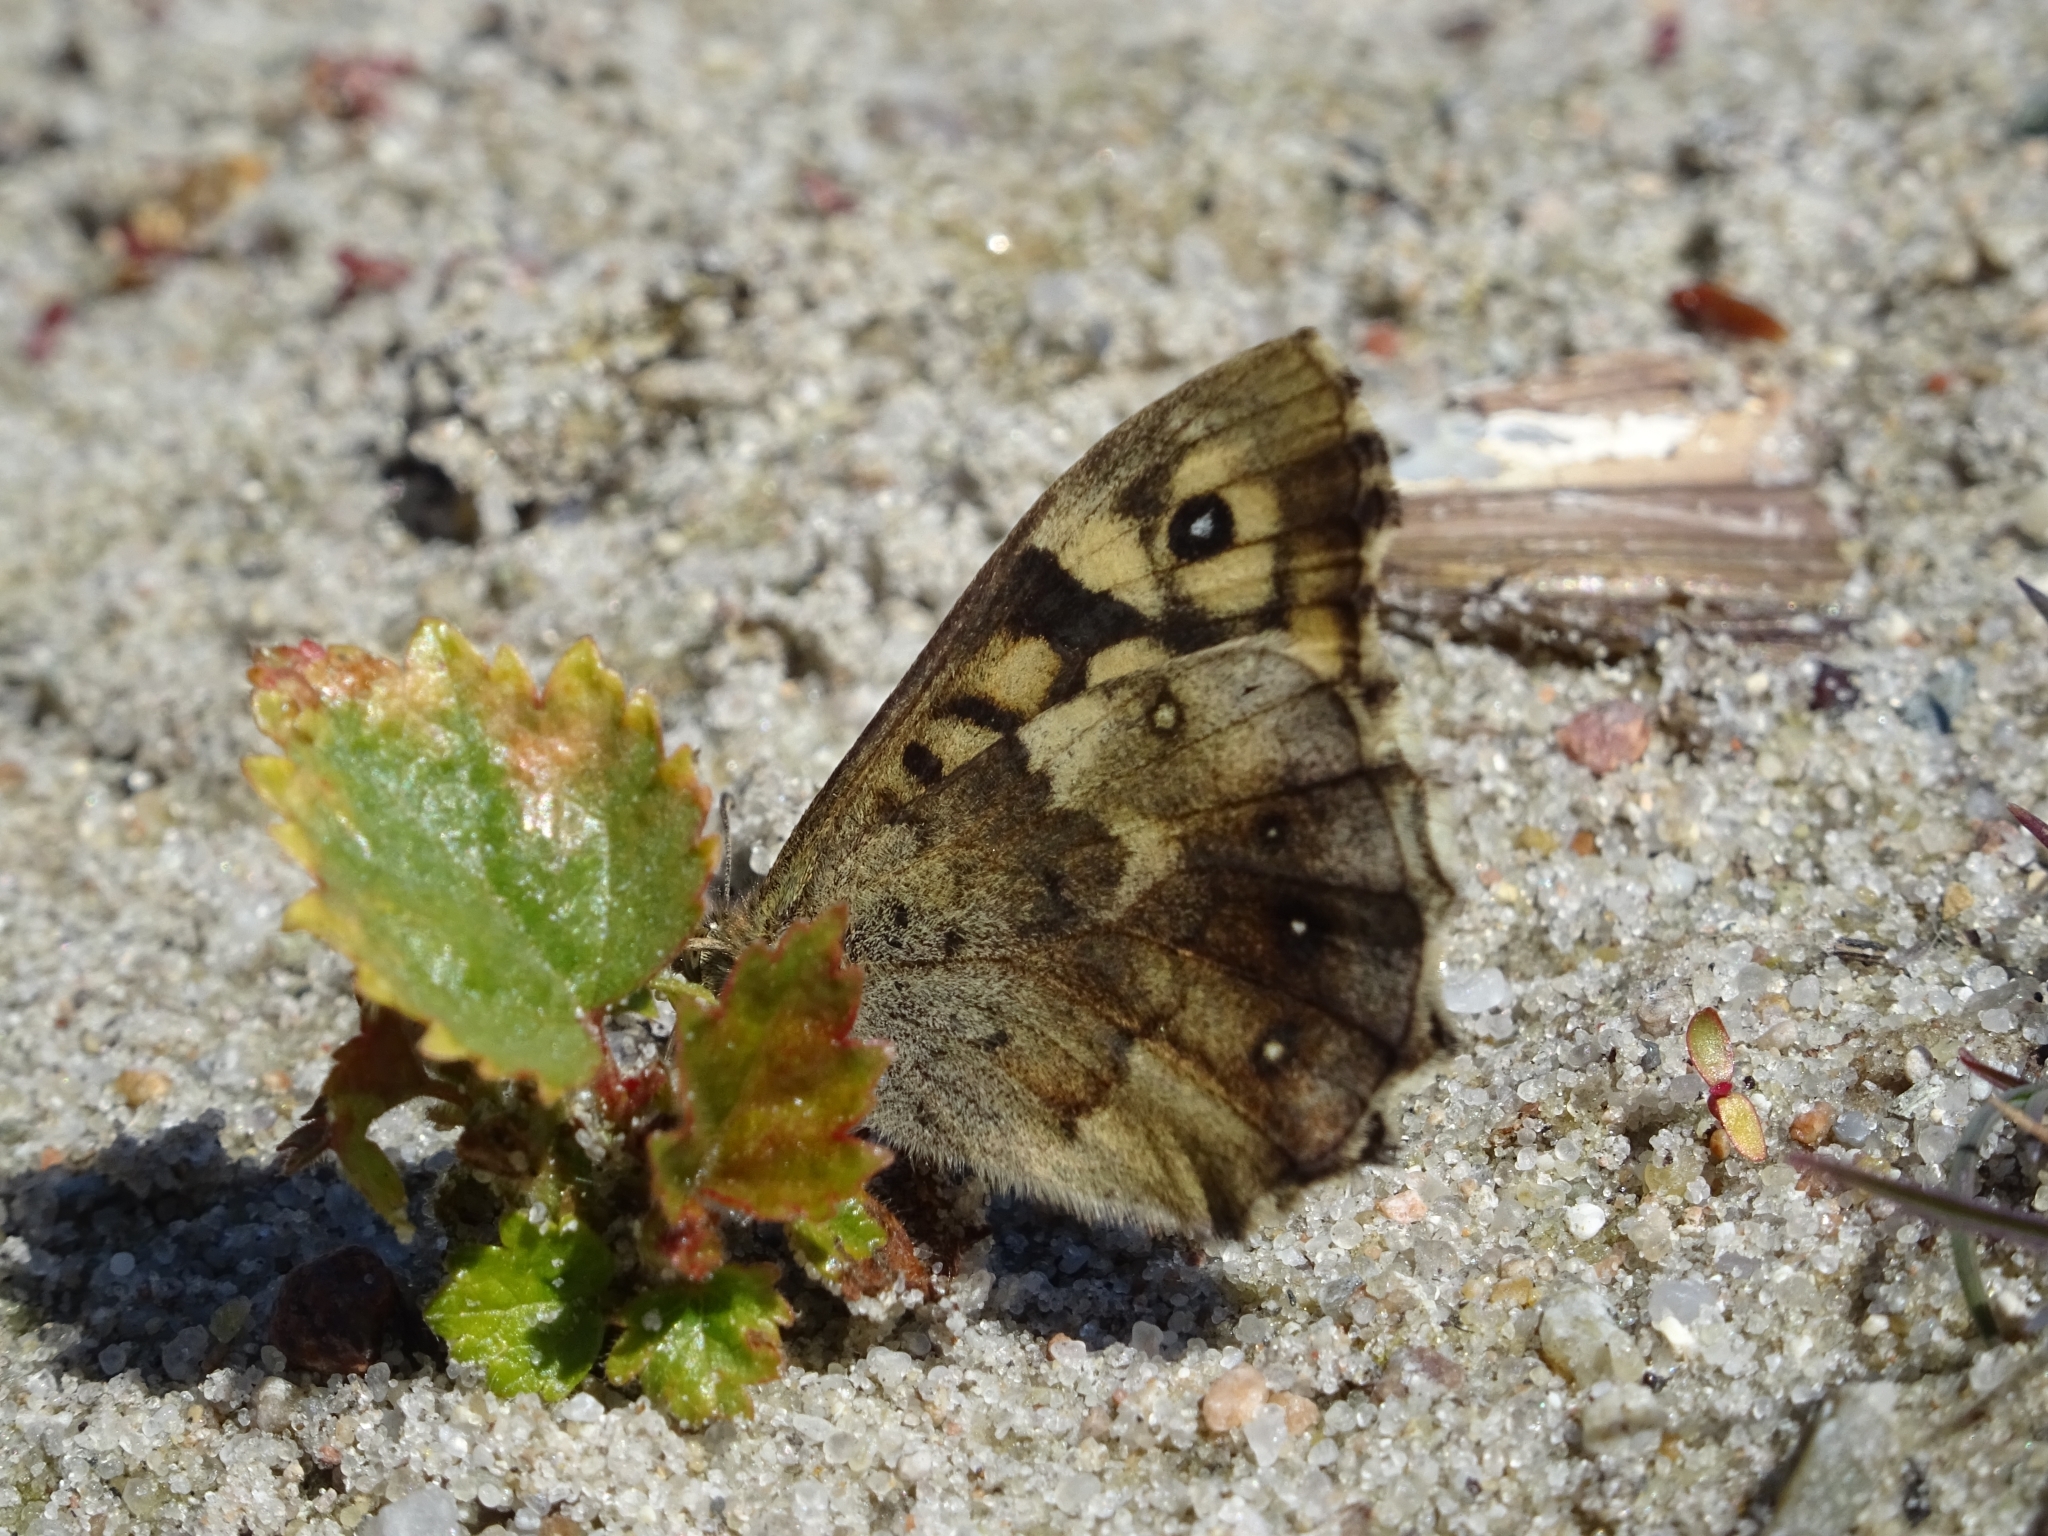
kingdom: Animalia
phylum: Arthropoda
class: Insecta
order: Lepidoptera
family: Nymphalidae
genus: Pararge
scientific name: Pararge aegeria
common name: Speckled wood
